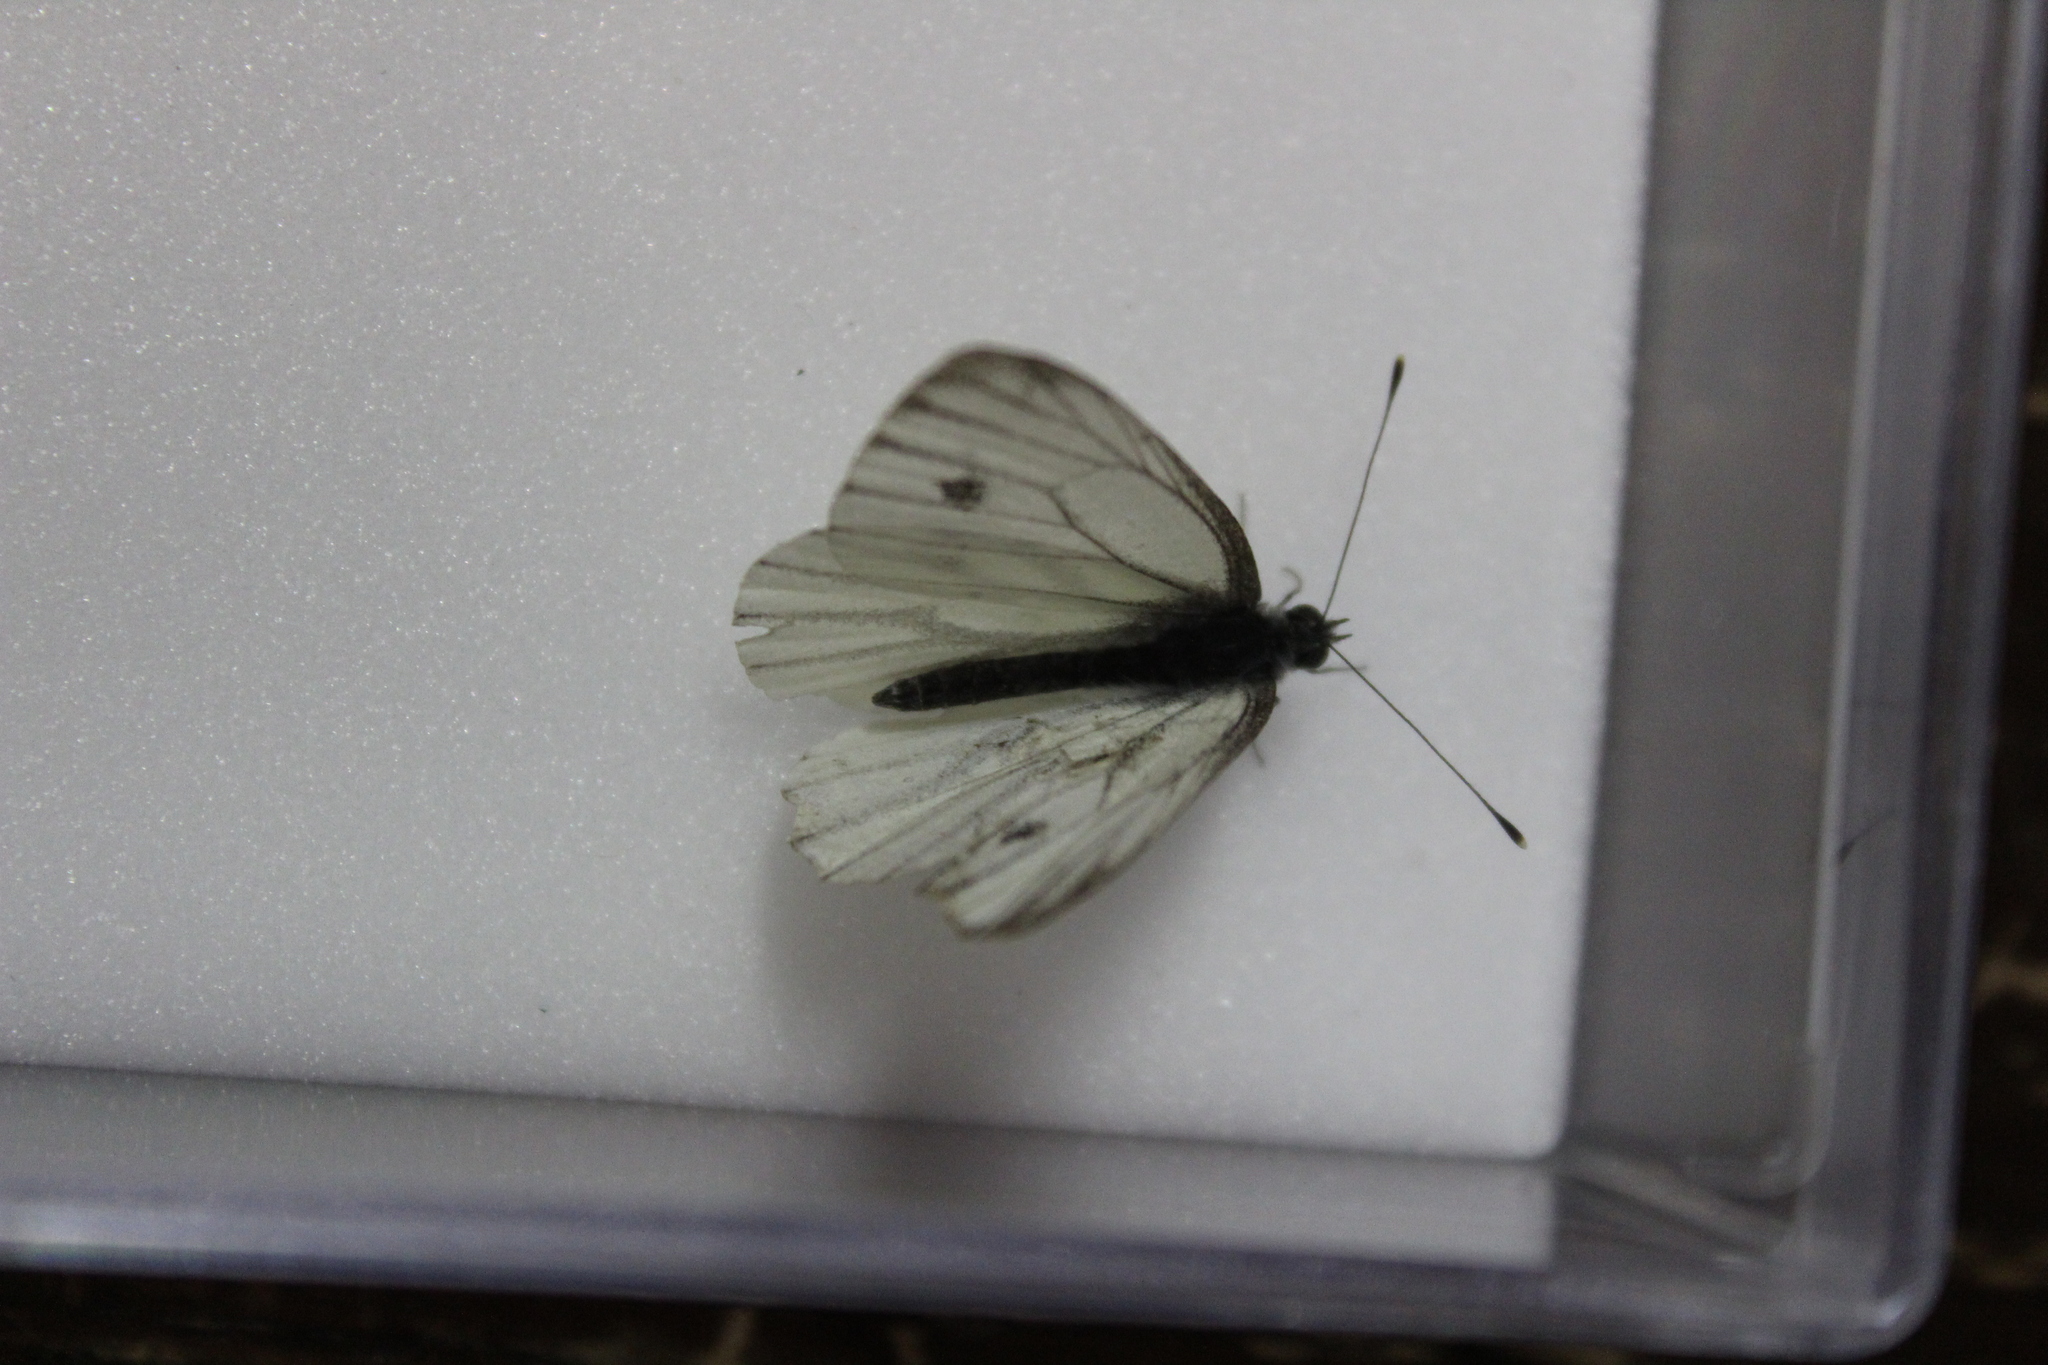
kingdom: Animalia
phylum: Arthropoda
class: Insecta
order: Lepidoptera
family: Pieridae
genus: Pieris
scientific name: Pieris napi
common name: Green-veined white
